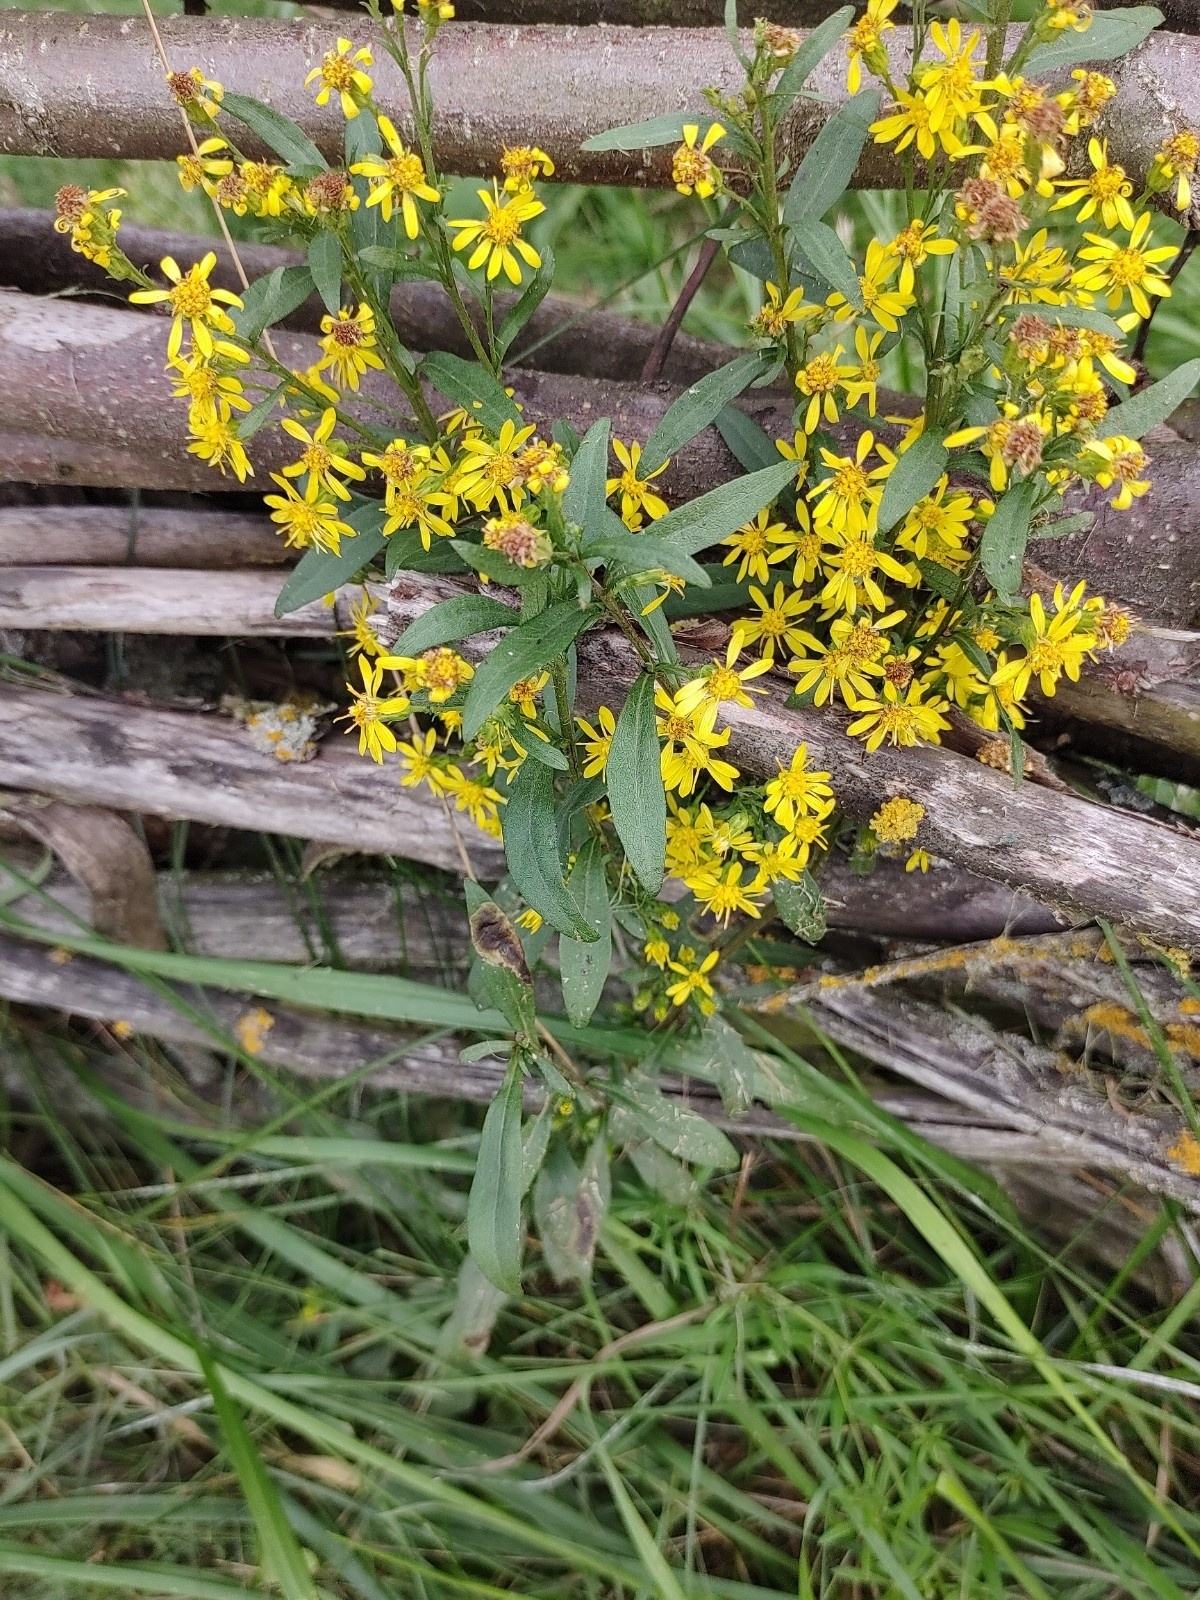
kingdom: Plantae
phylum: Tracheophyta
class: Magnoliopsida
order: Asterales
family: Asteraceae
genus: Solidago
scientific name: Solidago virgaurea
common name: Goldenrod
